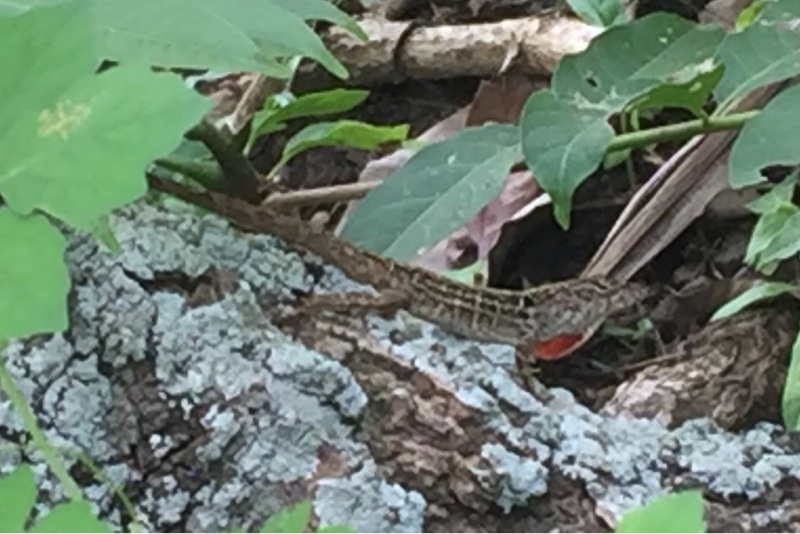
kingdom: Animalia
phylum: Chordata
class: Squamata
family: Dactyloidae
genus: Anolis
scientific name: Anolis sagrei
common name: Brown anole
